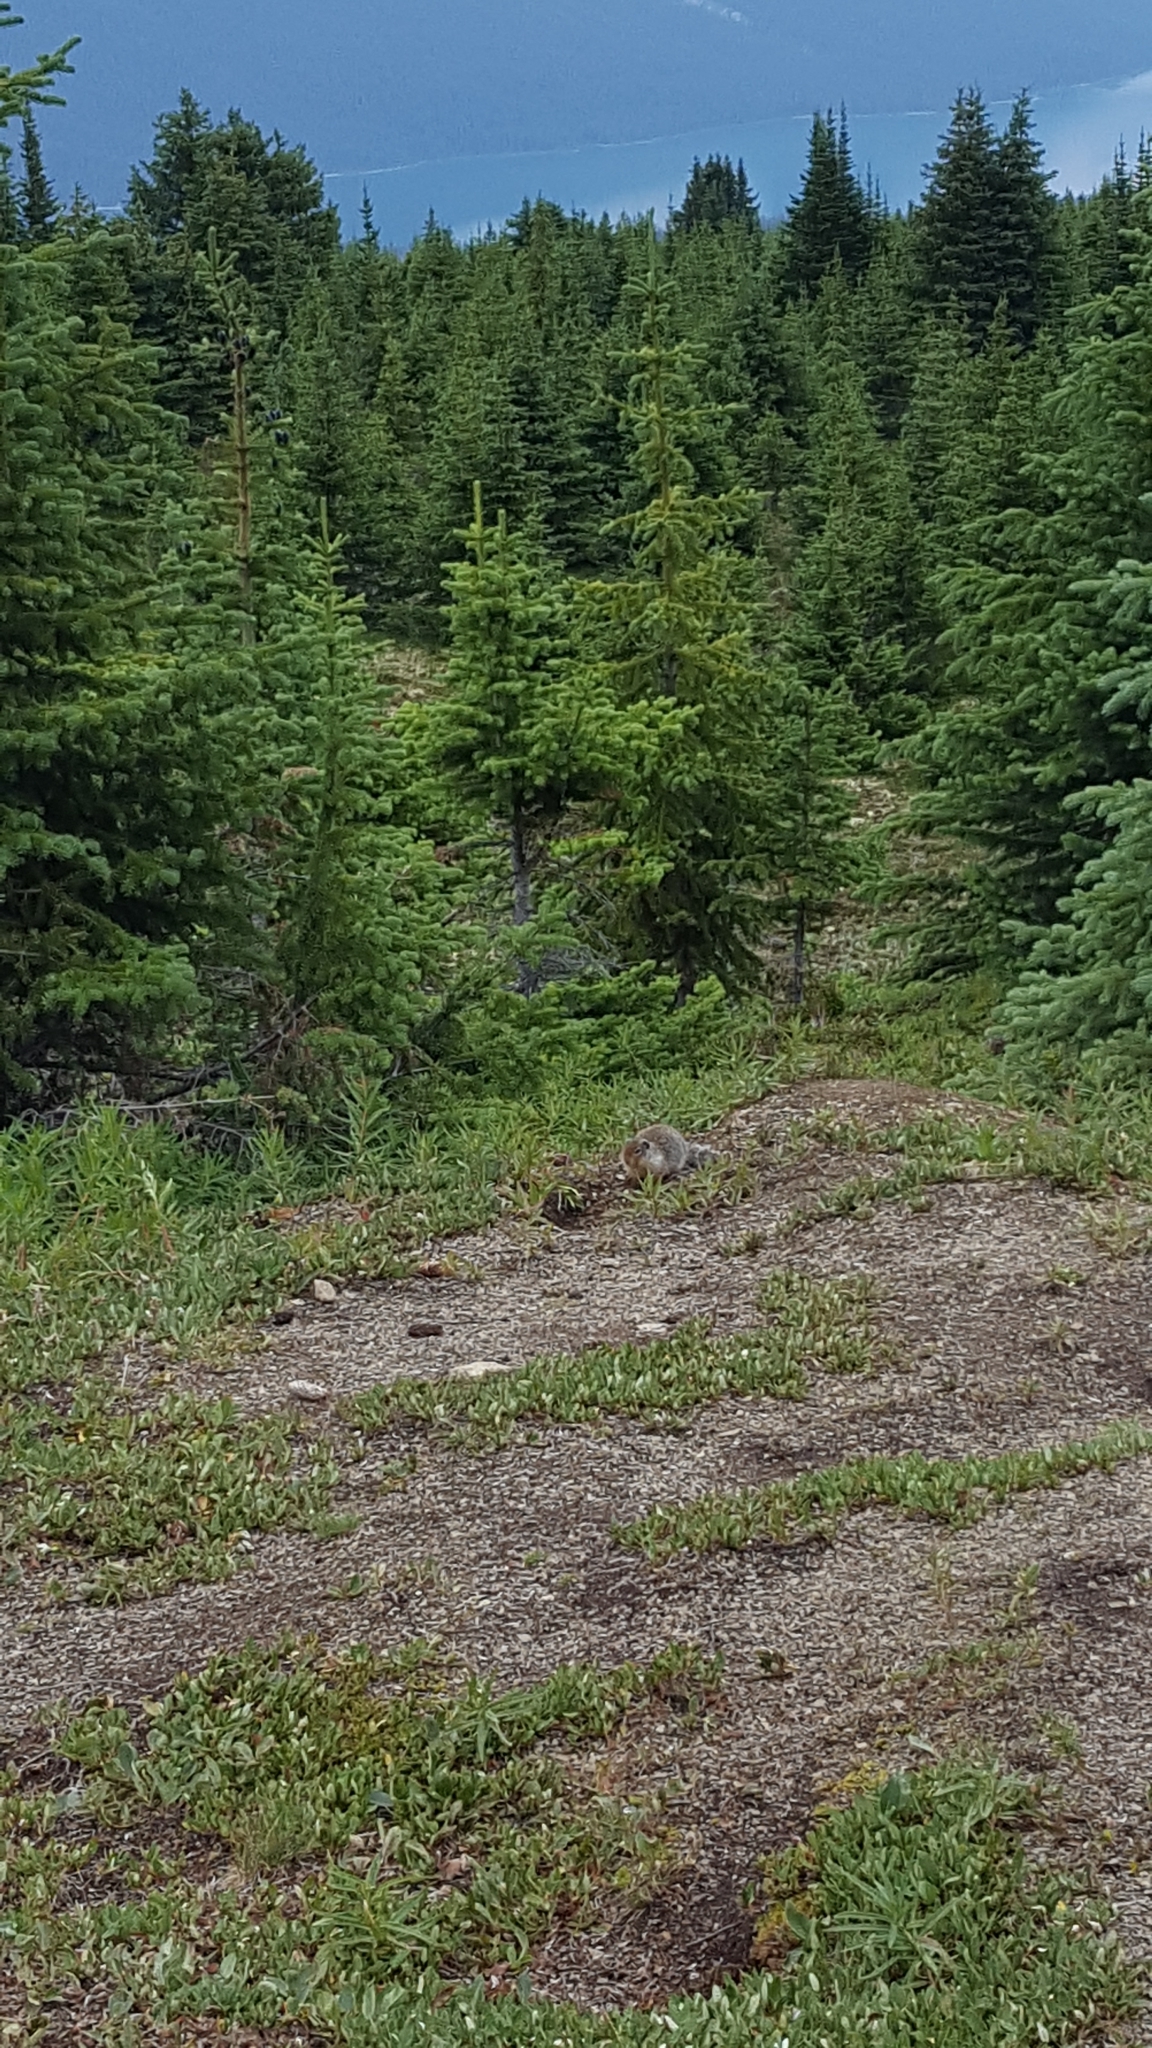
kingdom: Animalia
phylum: Chordata
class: Mammalia
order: Rodentia
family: Sciuridae
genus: Urocitellus
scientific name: Urocitellus columbianus
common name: Columbian ground squirrel
